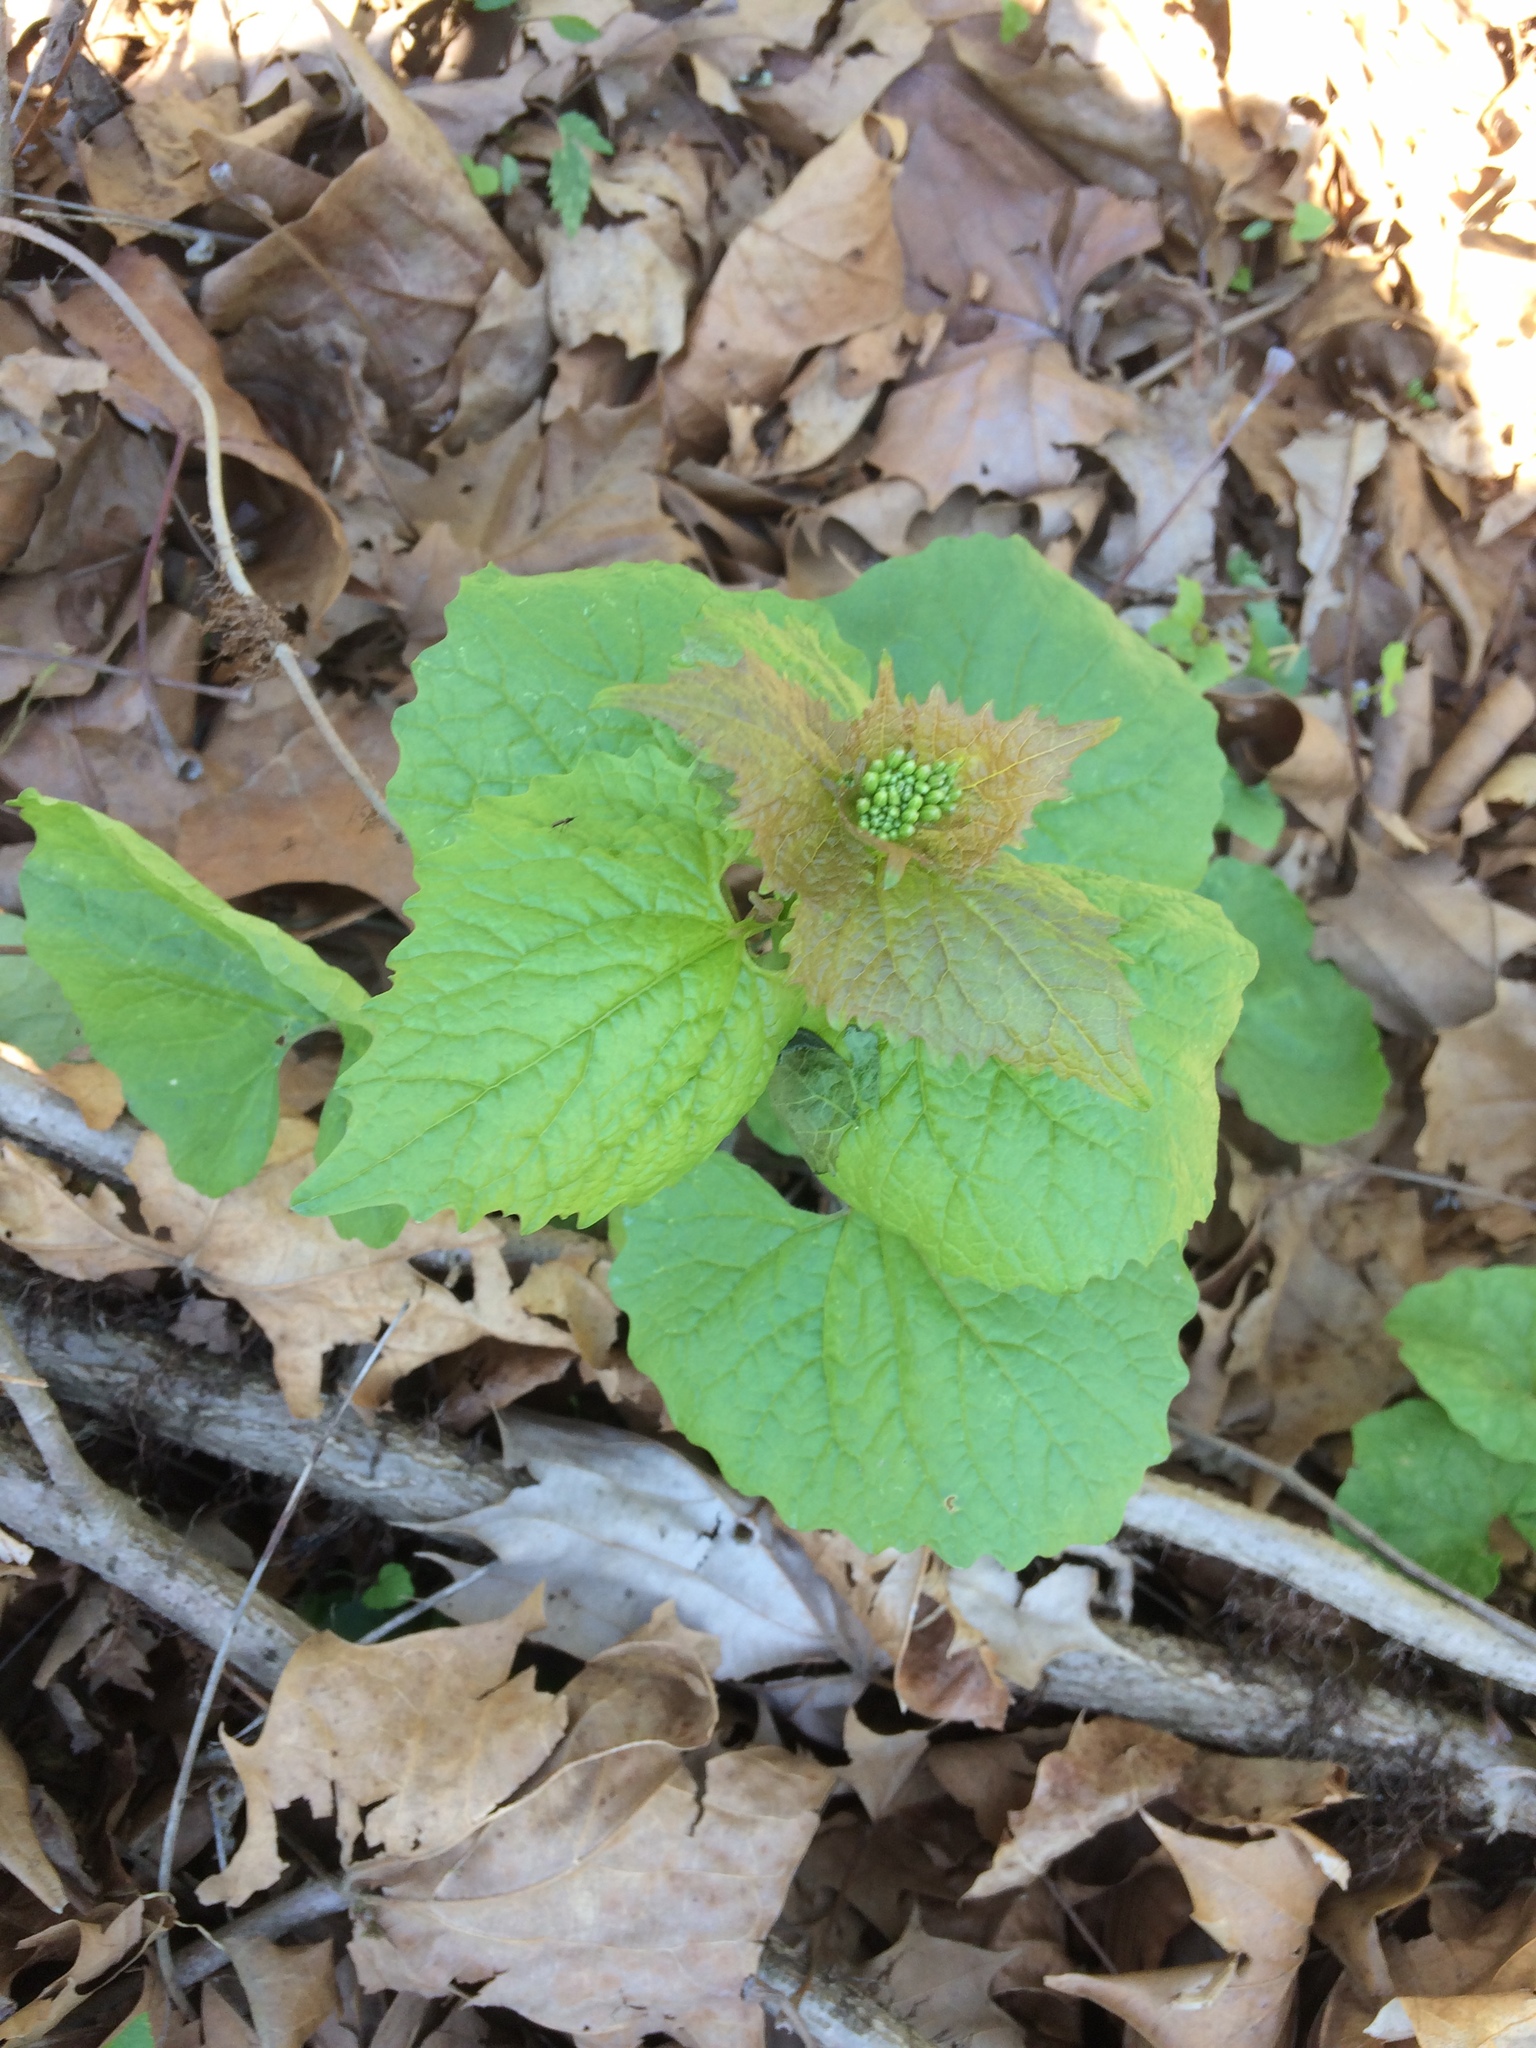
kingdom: Plantae
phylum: Tracheophyta
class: Magnoliopsida
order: Brassicales
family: Brassicaceae
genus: Alliaria
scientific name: Alliaria petiolata
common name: Garlic mustard
